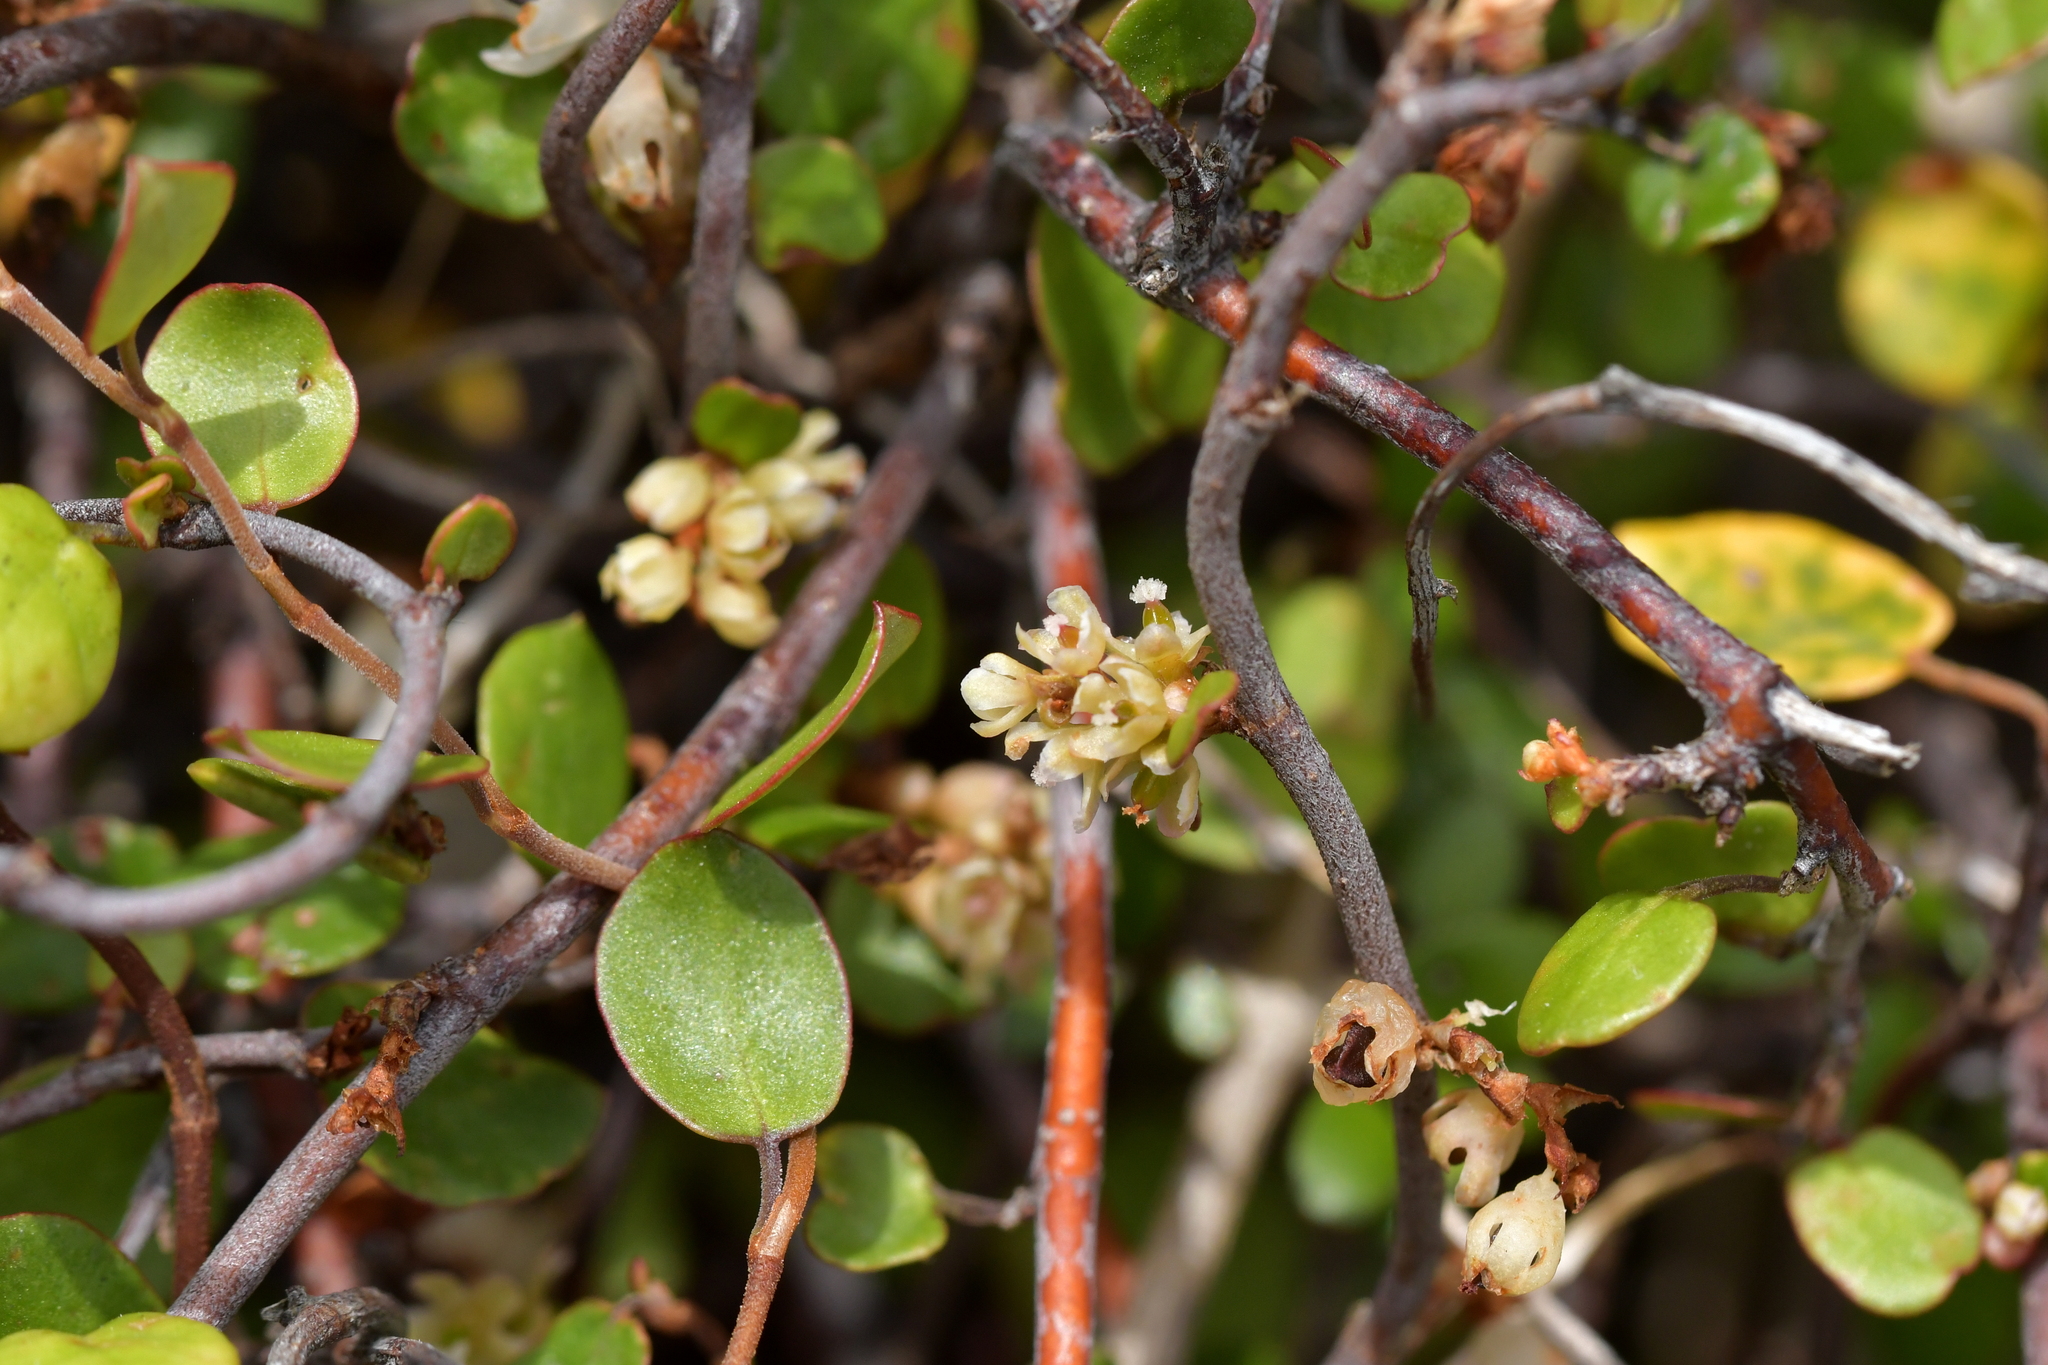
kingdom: Plantae
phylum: Tracheophyta
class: Magnoliopsida
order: Caryophyllales
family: Polygonaceae
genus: Muehlenbeckia
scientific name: Muehlenbeckia complexa
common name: Wireplant
